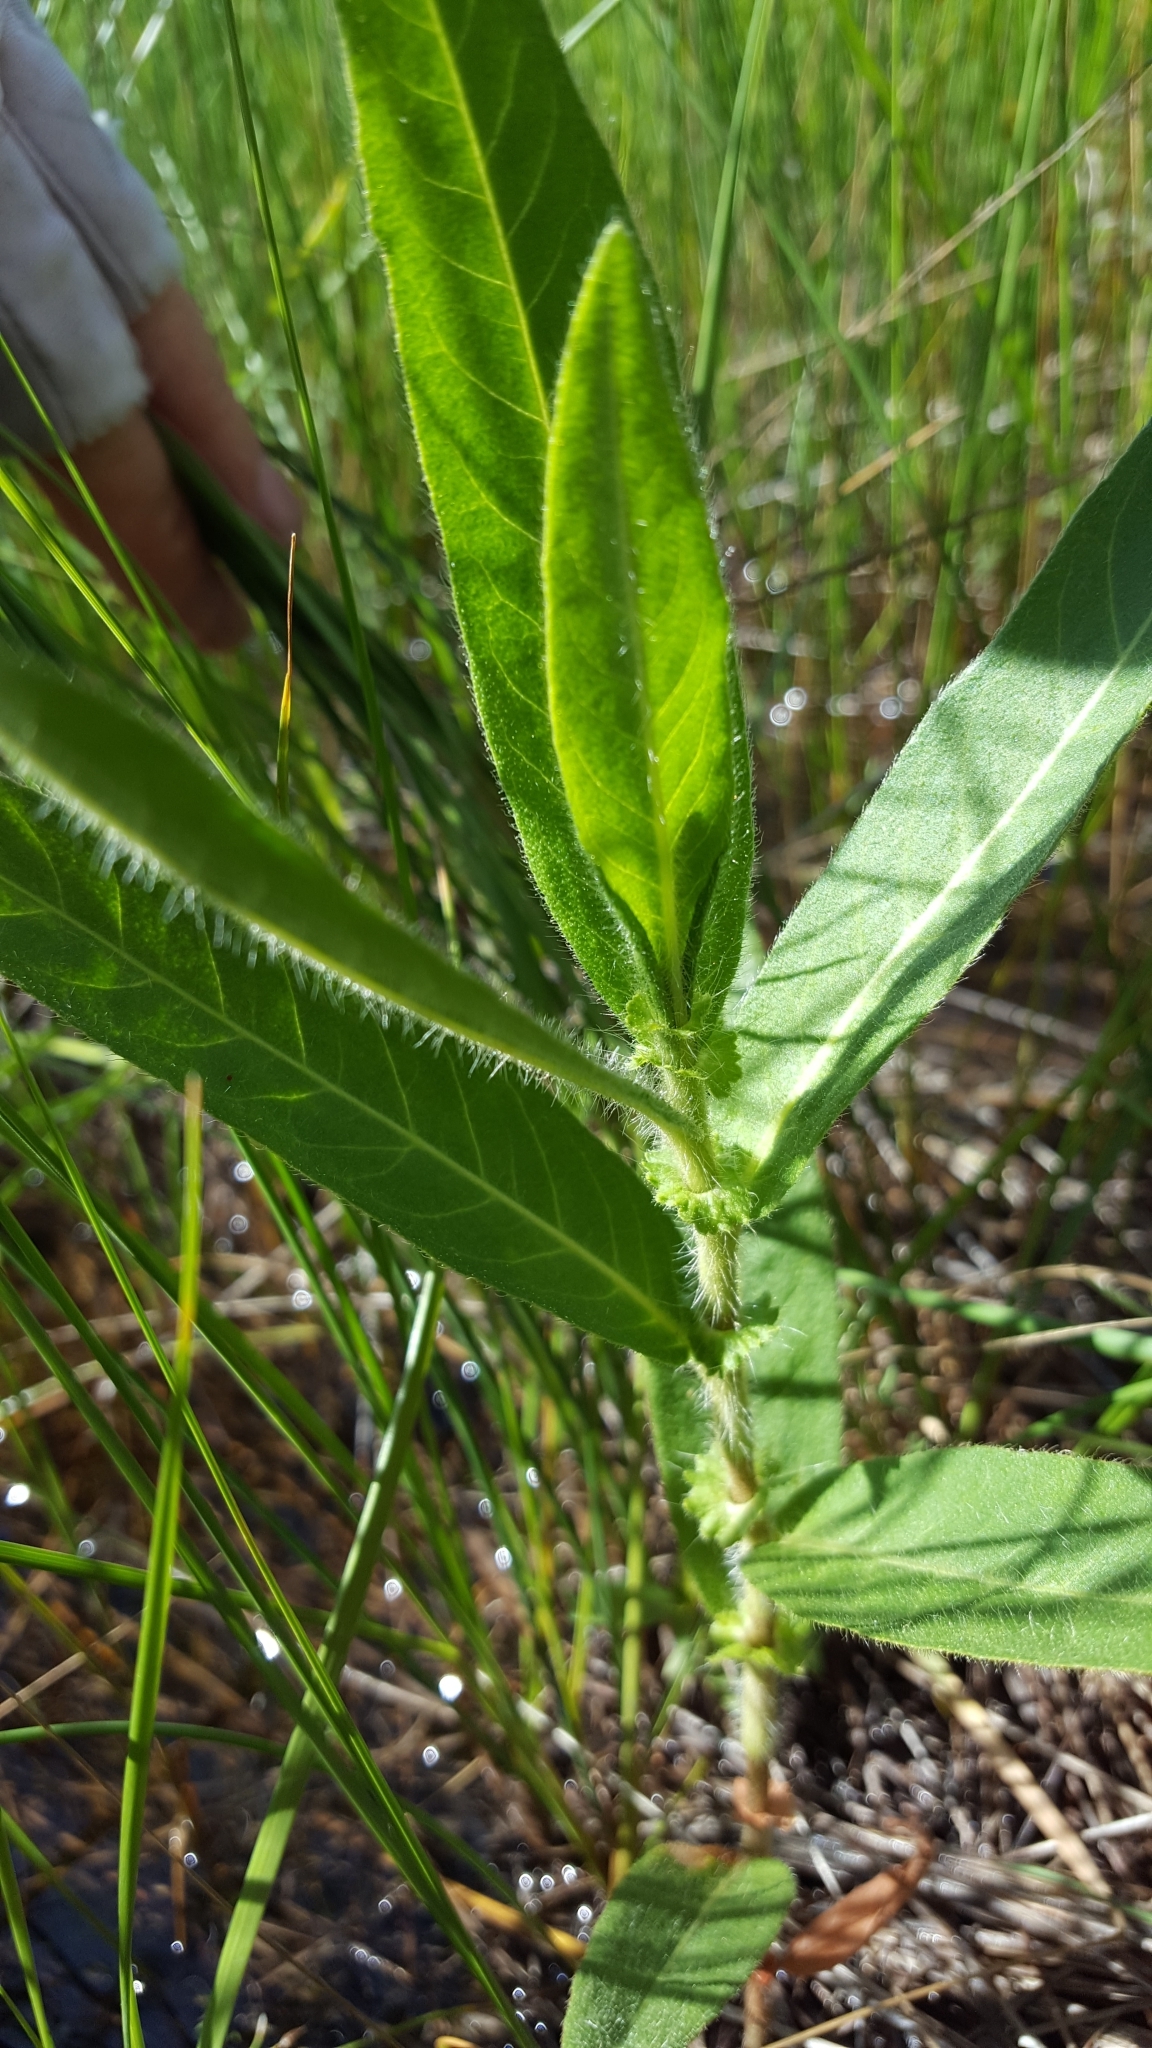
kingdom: Plantae
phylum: Tracheophyta
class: Magnoliopsida
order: Caryophyllales
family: Polygonaceae
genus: Persicaria
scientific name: Persicaria amphibia
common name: Amphibious bistort
